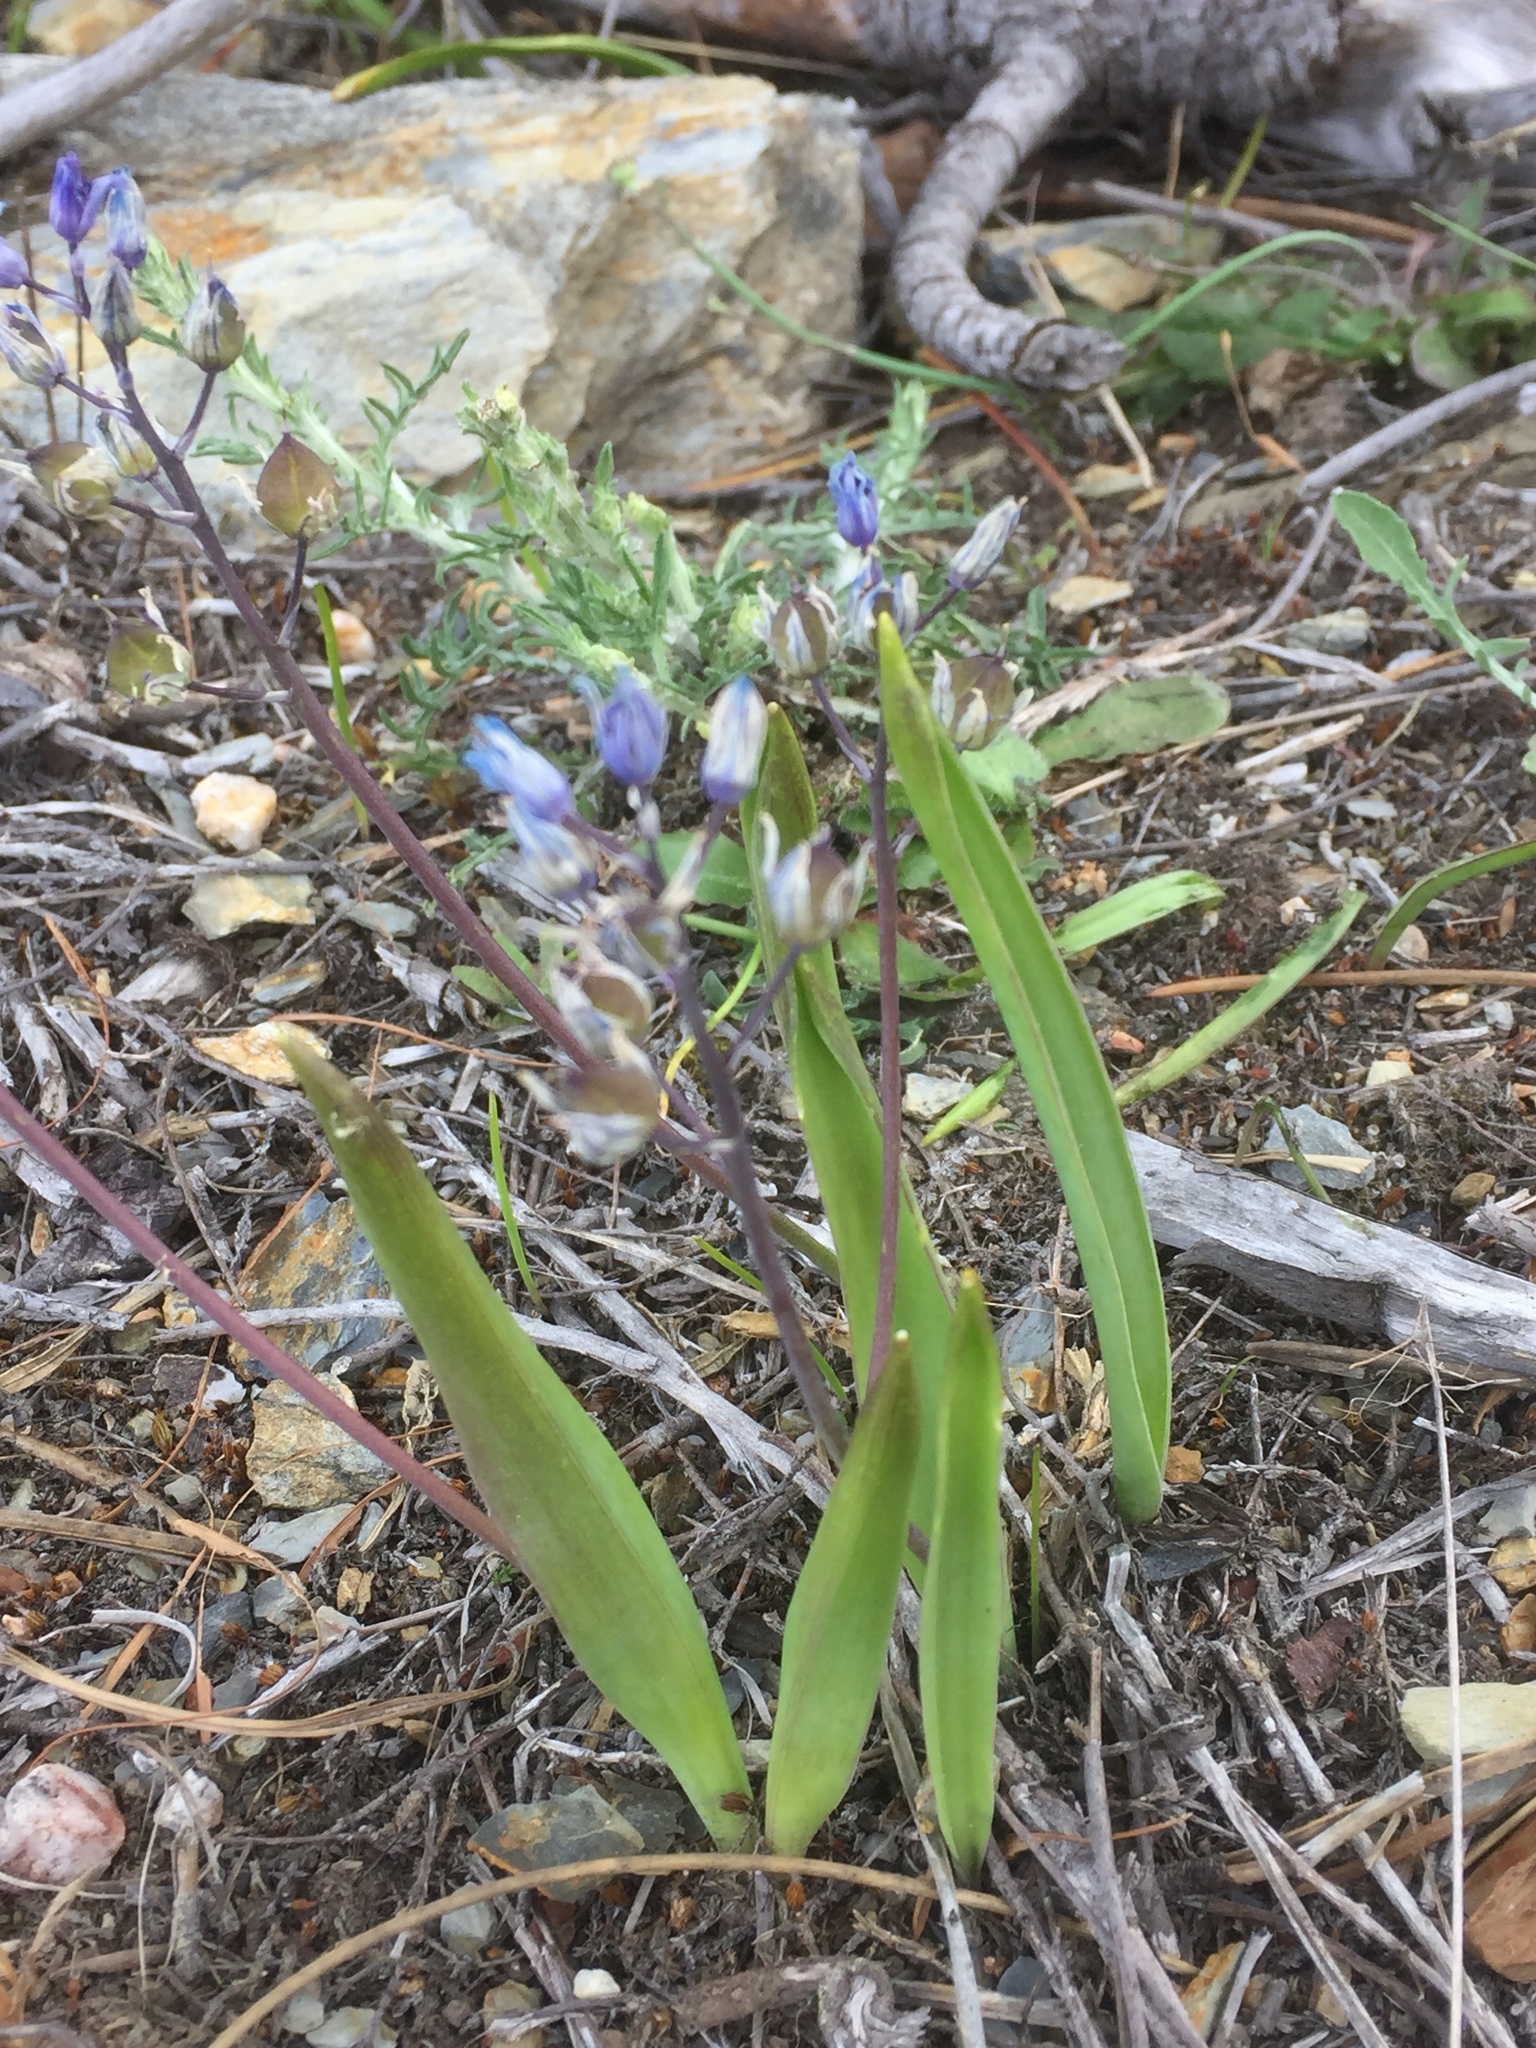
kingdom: Plantae
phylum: Tracheophyta
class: Liliopsida
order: Asparagales
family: Asparagaceae
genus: Scilla
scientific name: Scilla monophyllos
